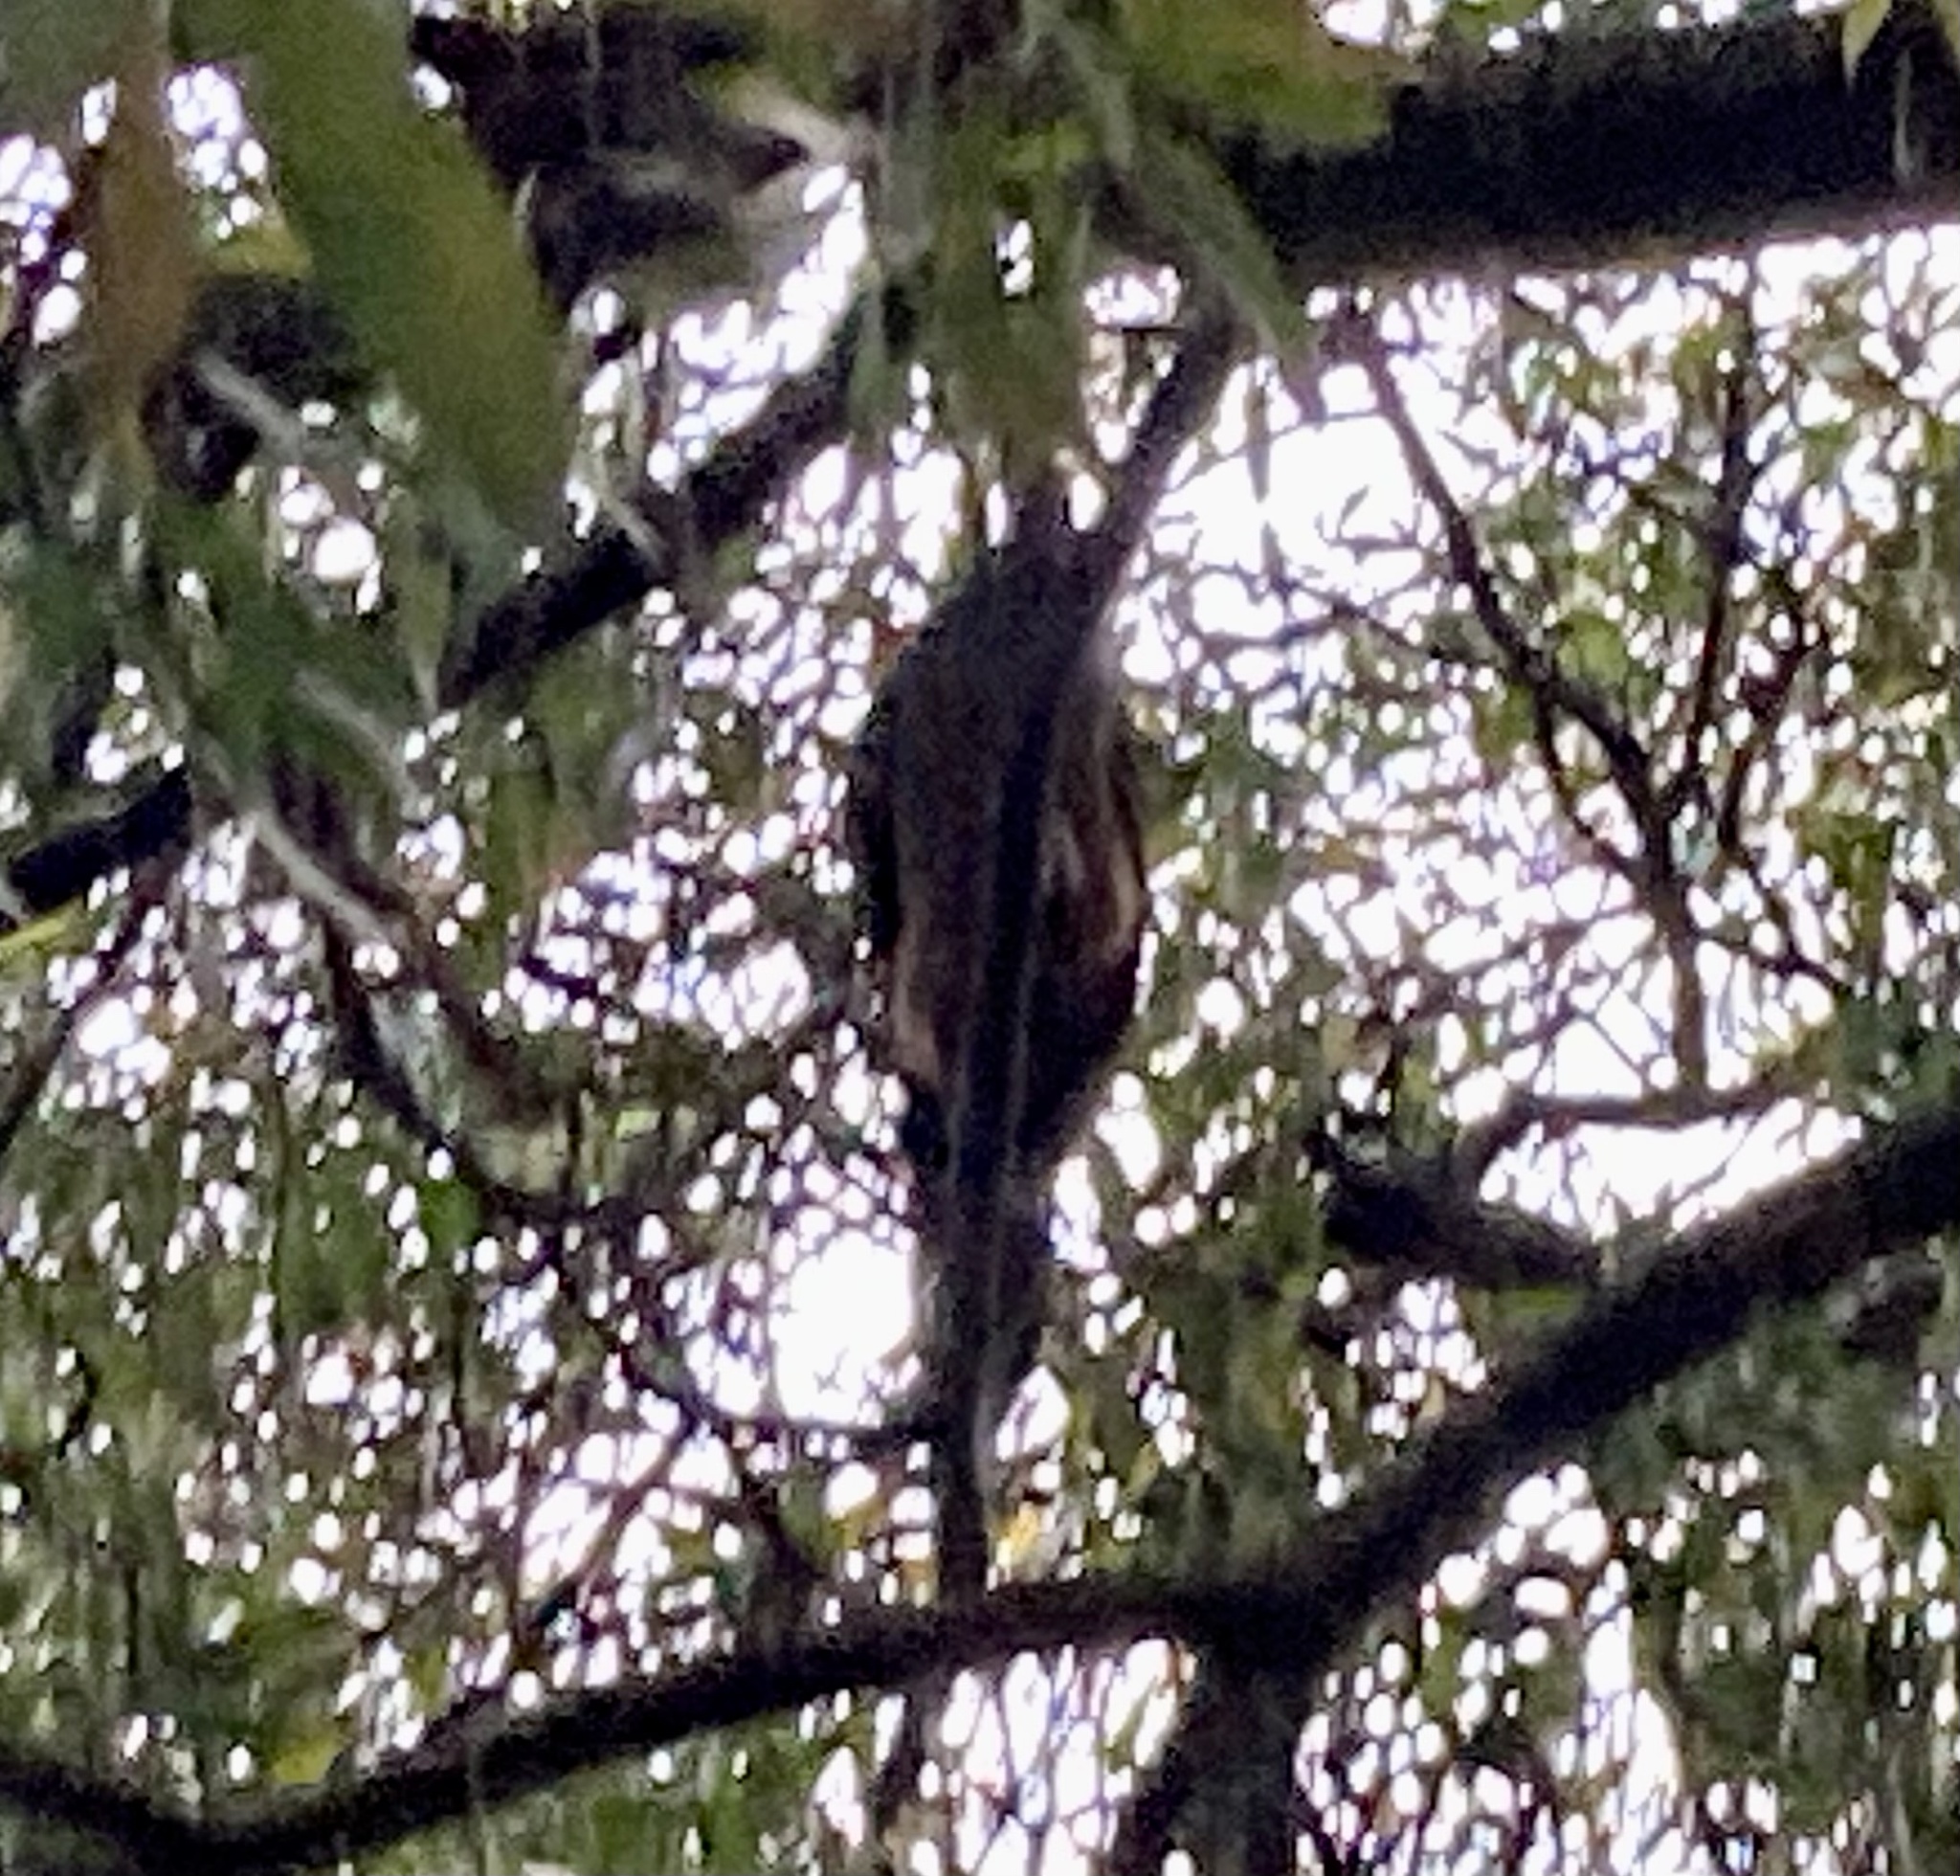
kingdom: Animalia
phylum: Chordata
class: Aves
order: Galliformes
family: Cracidae
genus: Penelope
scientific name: Penelope montagnii
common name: Andean guan
